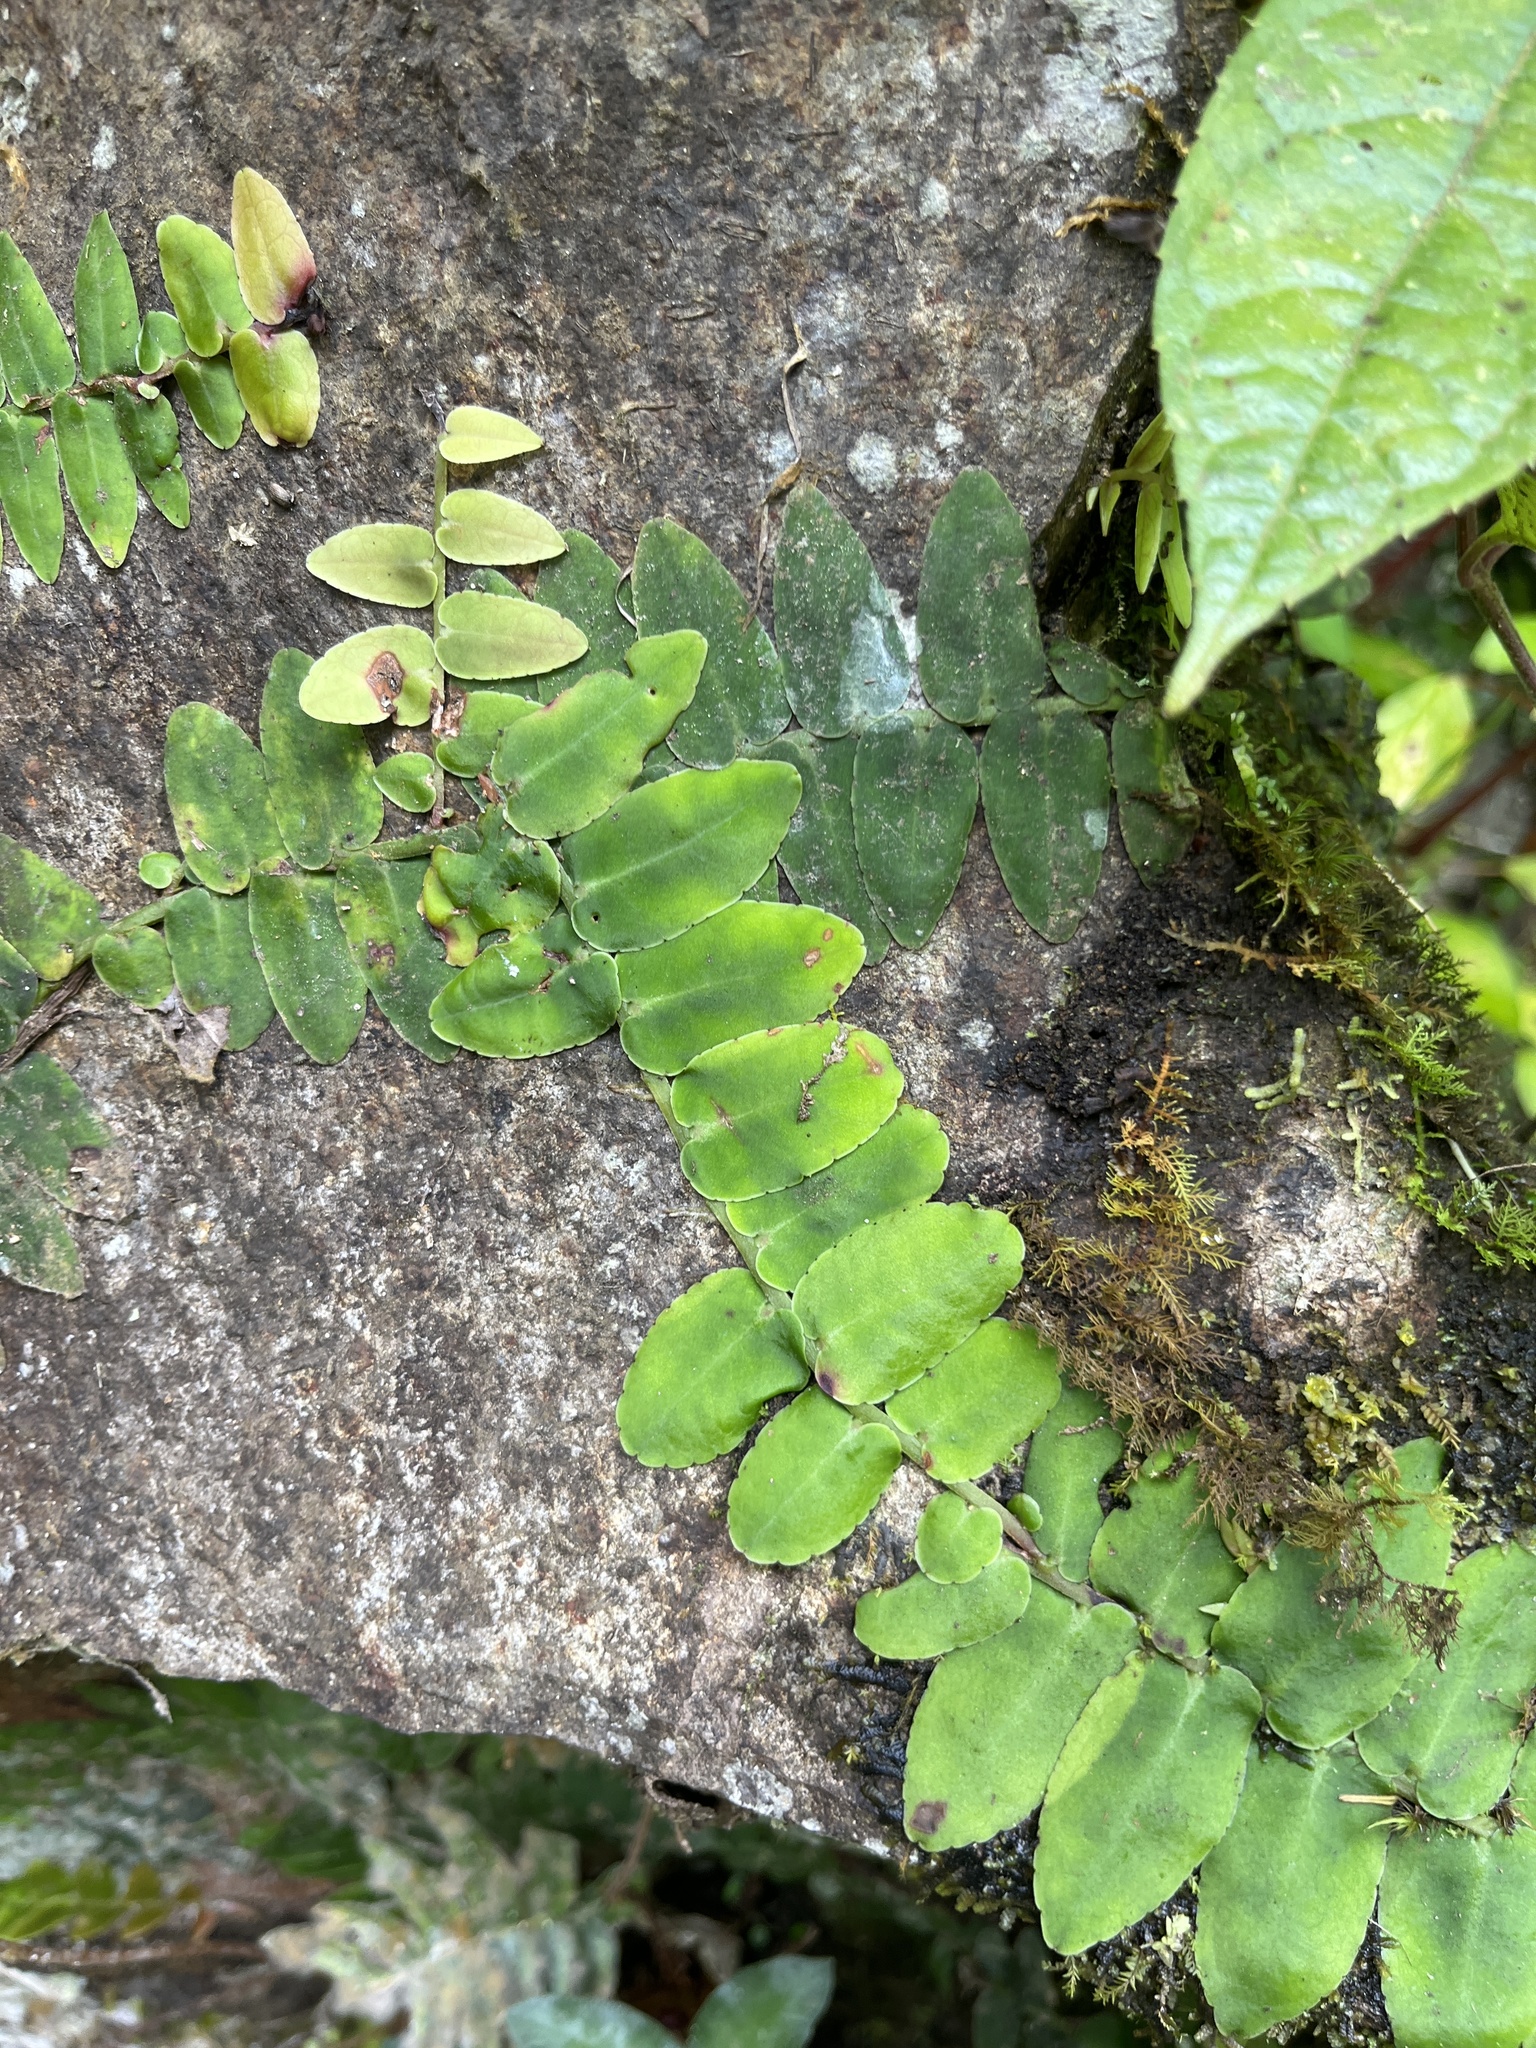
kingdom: Plantae
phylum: Tracheophyta
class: Magnoliopsida
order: Ericales
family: Marcgraviaceae
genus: Marcgravia
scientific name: Marcgravia rectiflora
